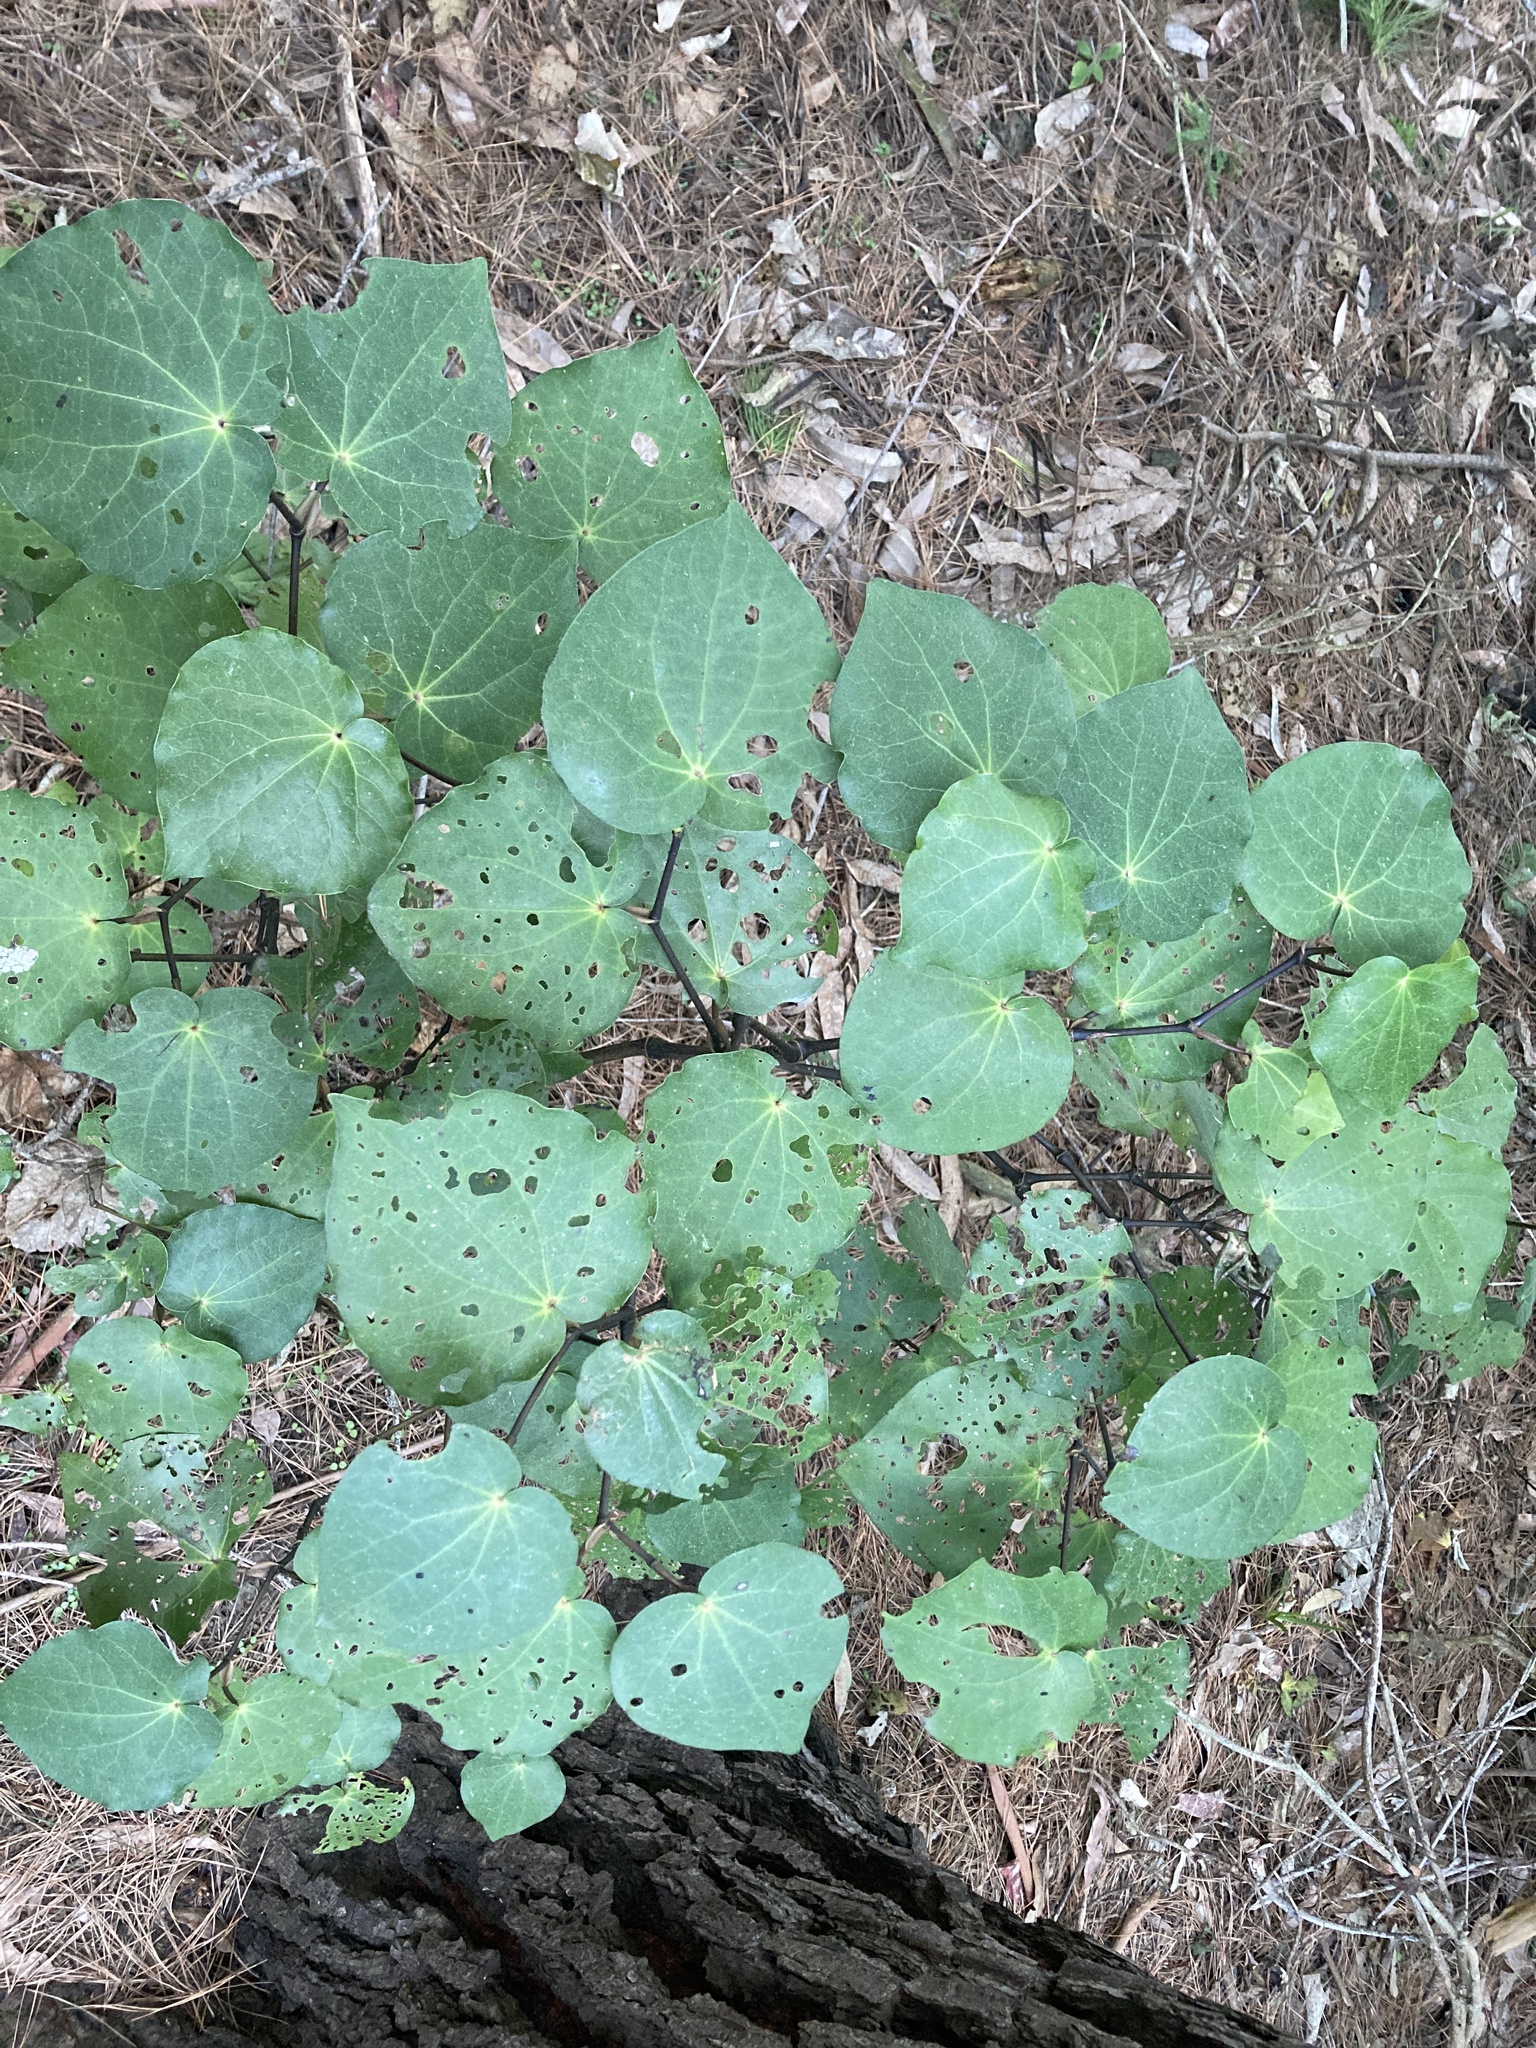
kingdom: Plantae
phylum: Tracheophyta
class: Magnoliopsida
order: Piperales
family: Piperaceae
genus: Macropiper
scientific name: Macropiper excelsum
